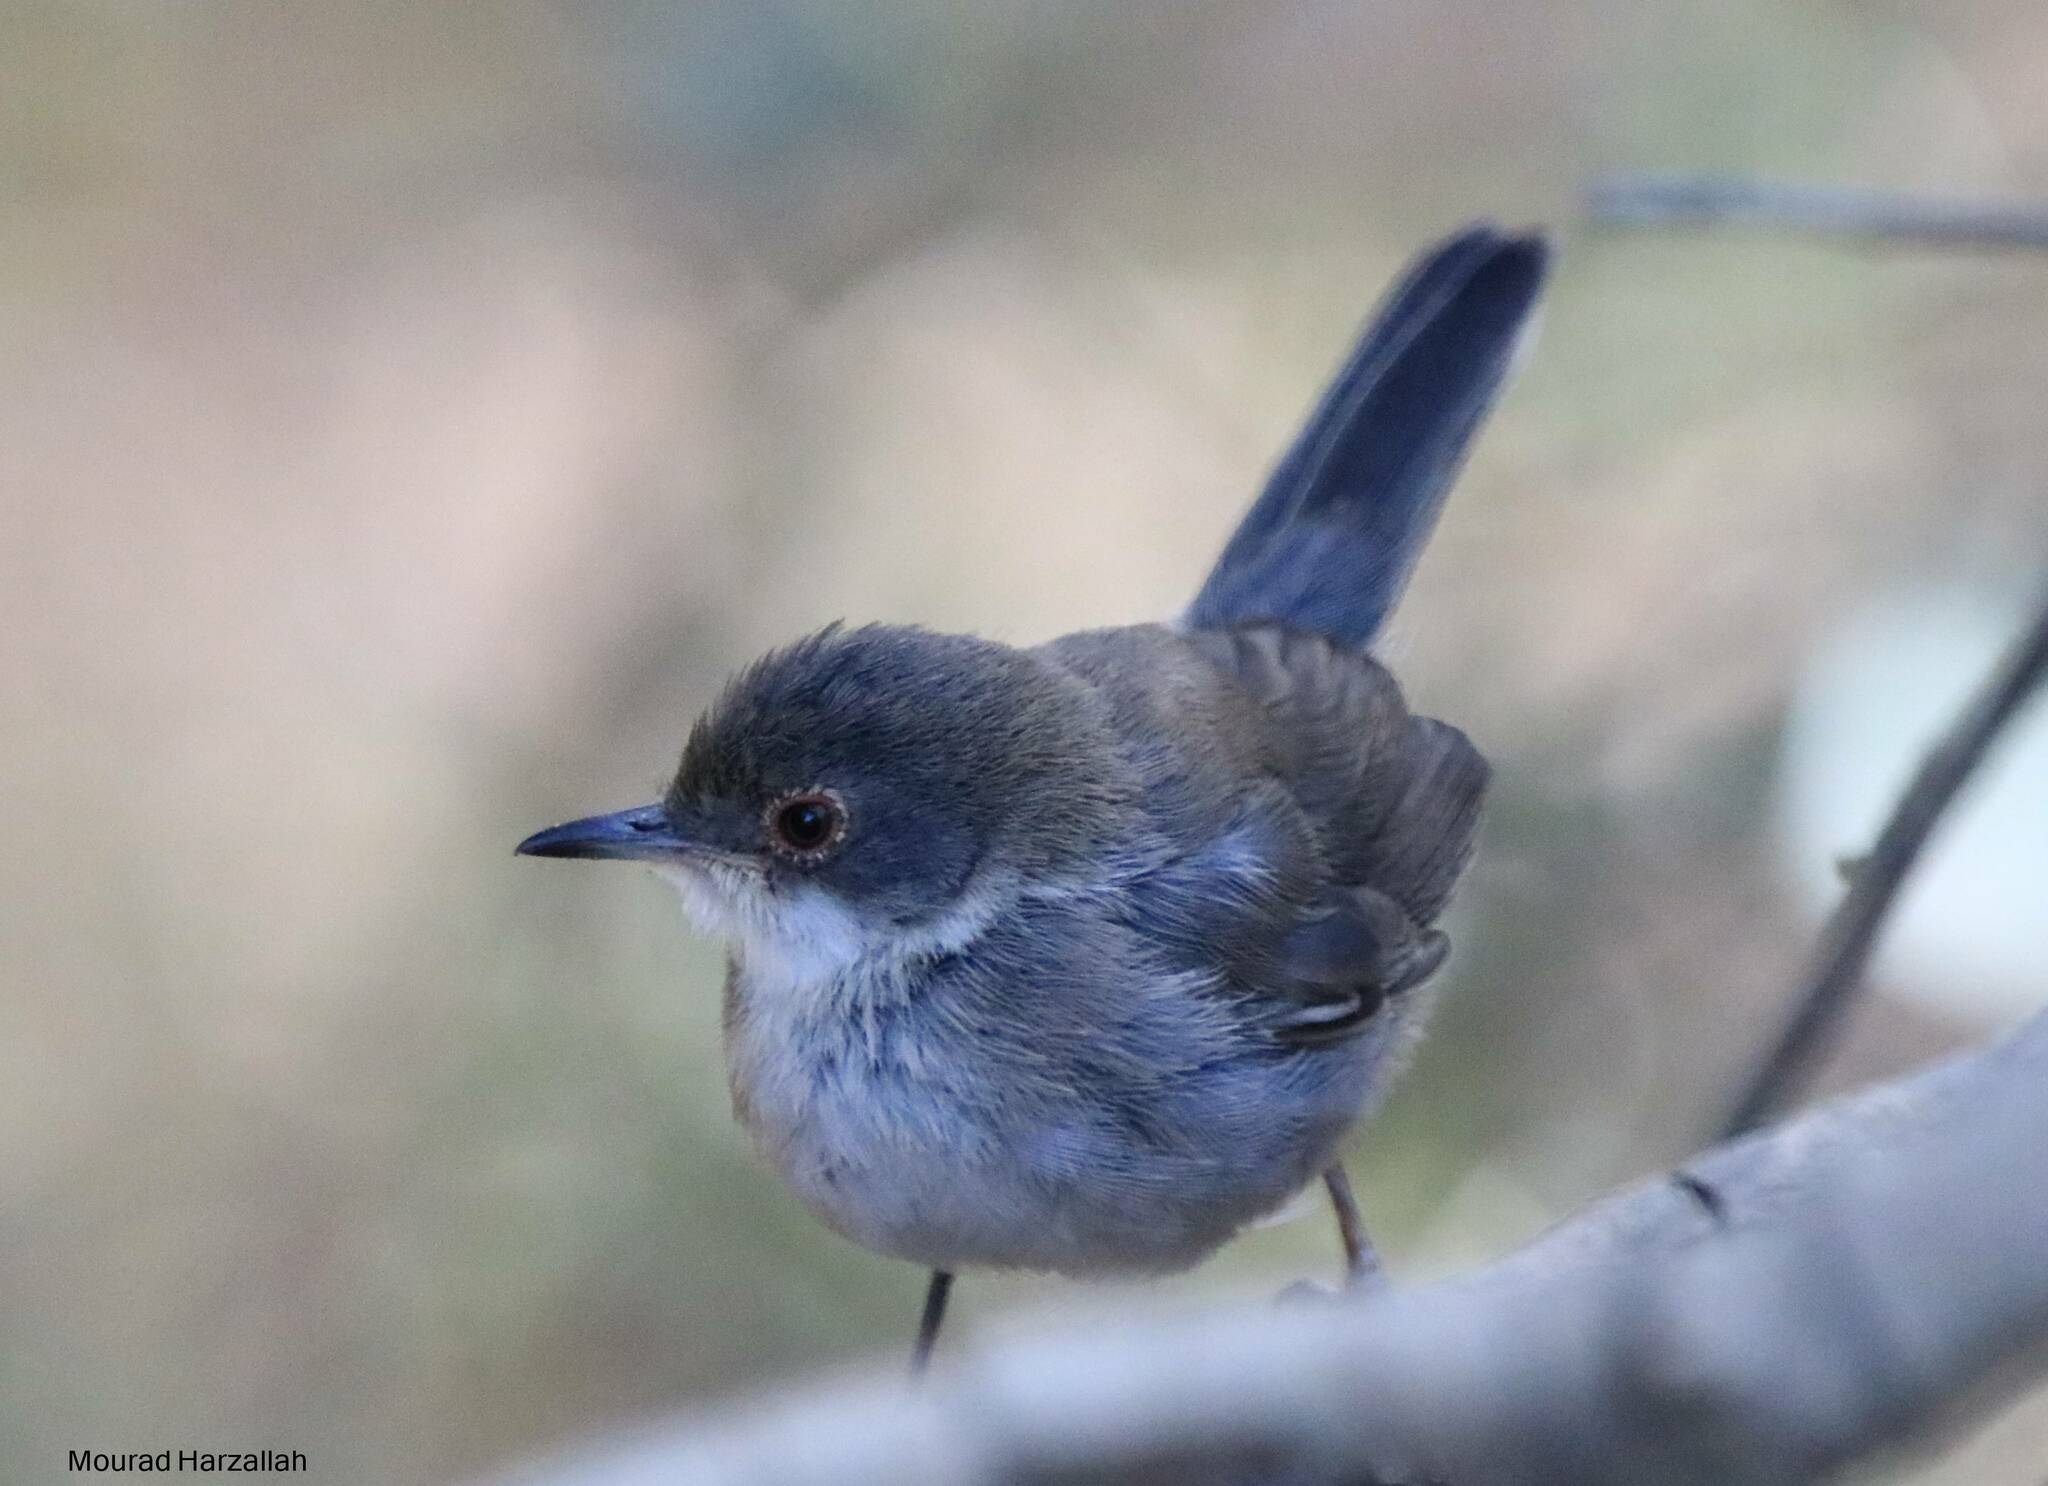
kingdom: Animalia
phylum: Chordata
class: Aves
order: Passeriformes
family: Sylviidae
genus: Curruca
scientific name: Curruca melanocephala
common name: Sardinian warbler
